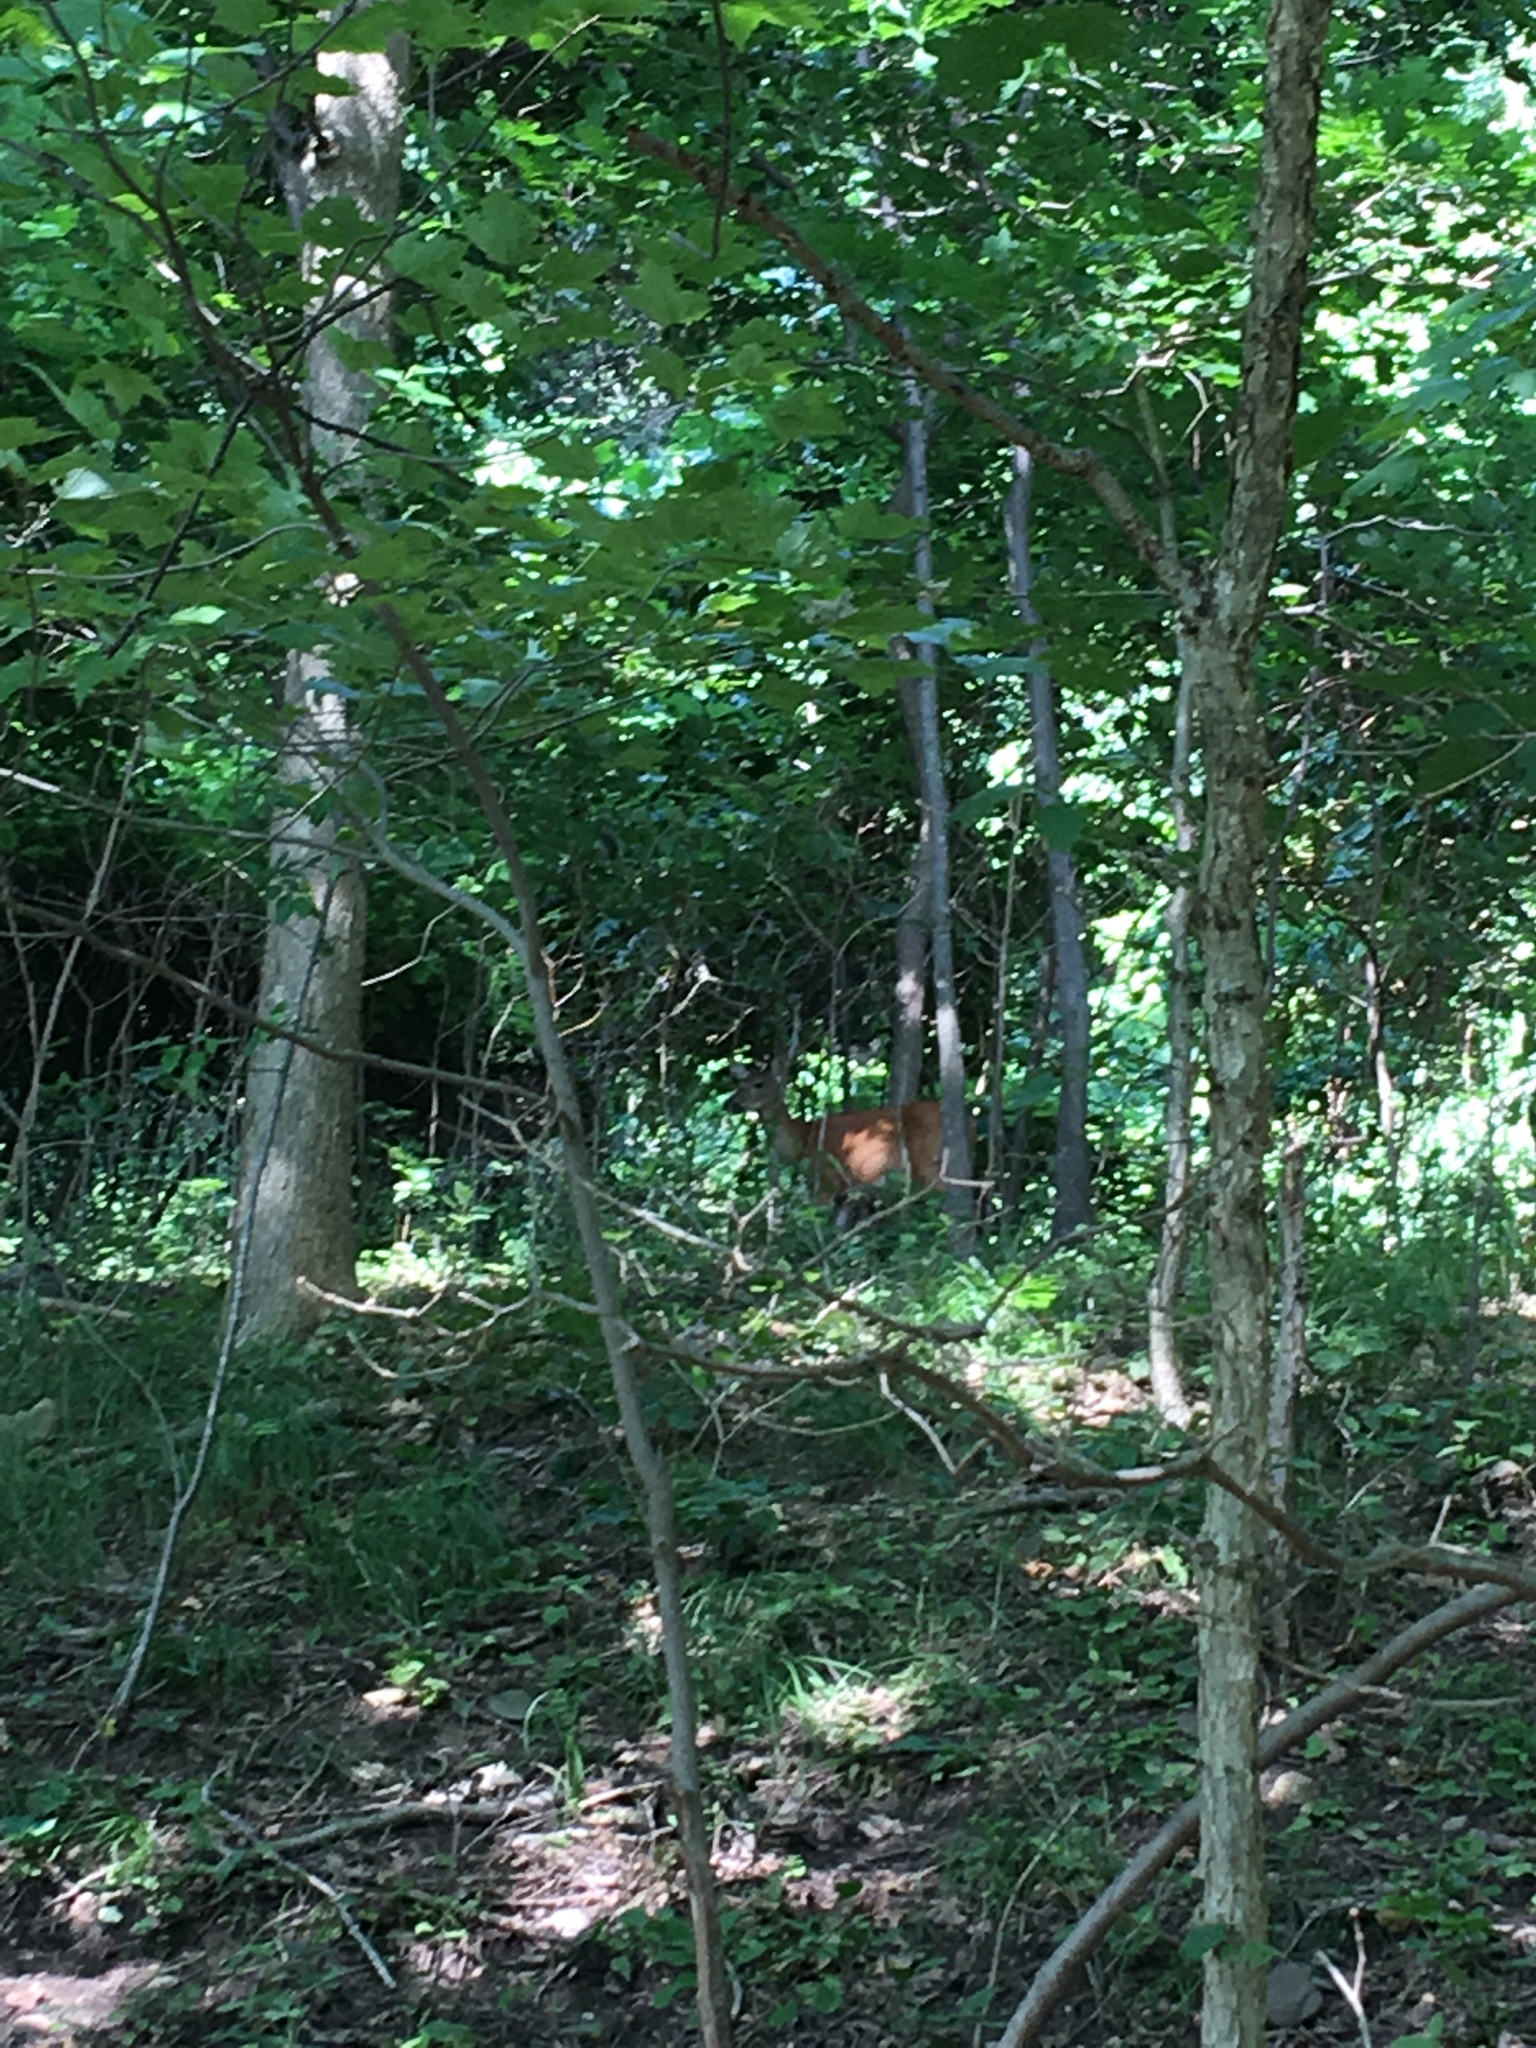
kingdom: Animalia
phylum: Chordata
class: Mammalia
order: Artiodactyla
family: Cervidae
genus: Odocoileus
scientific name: Odocoileus virginianus
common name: White-tailed deer
